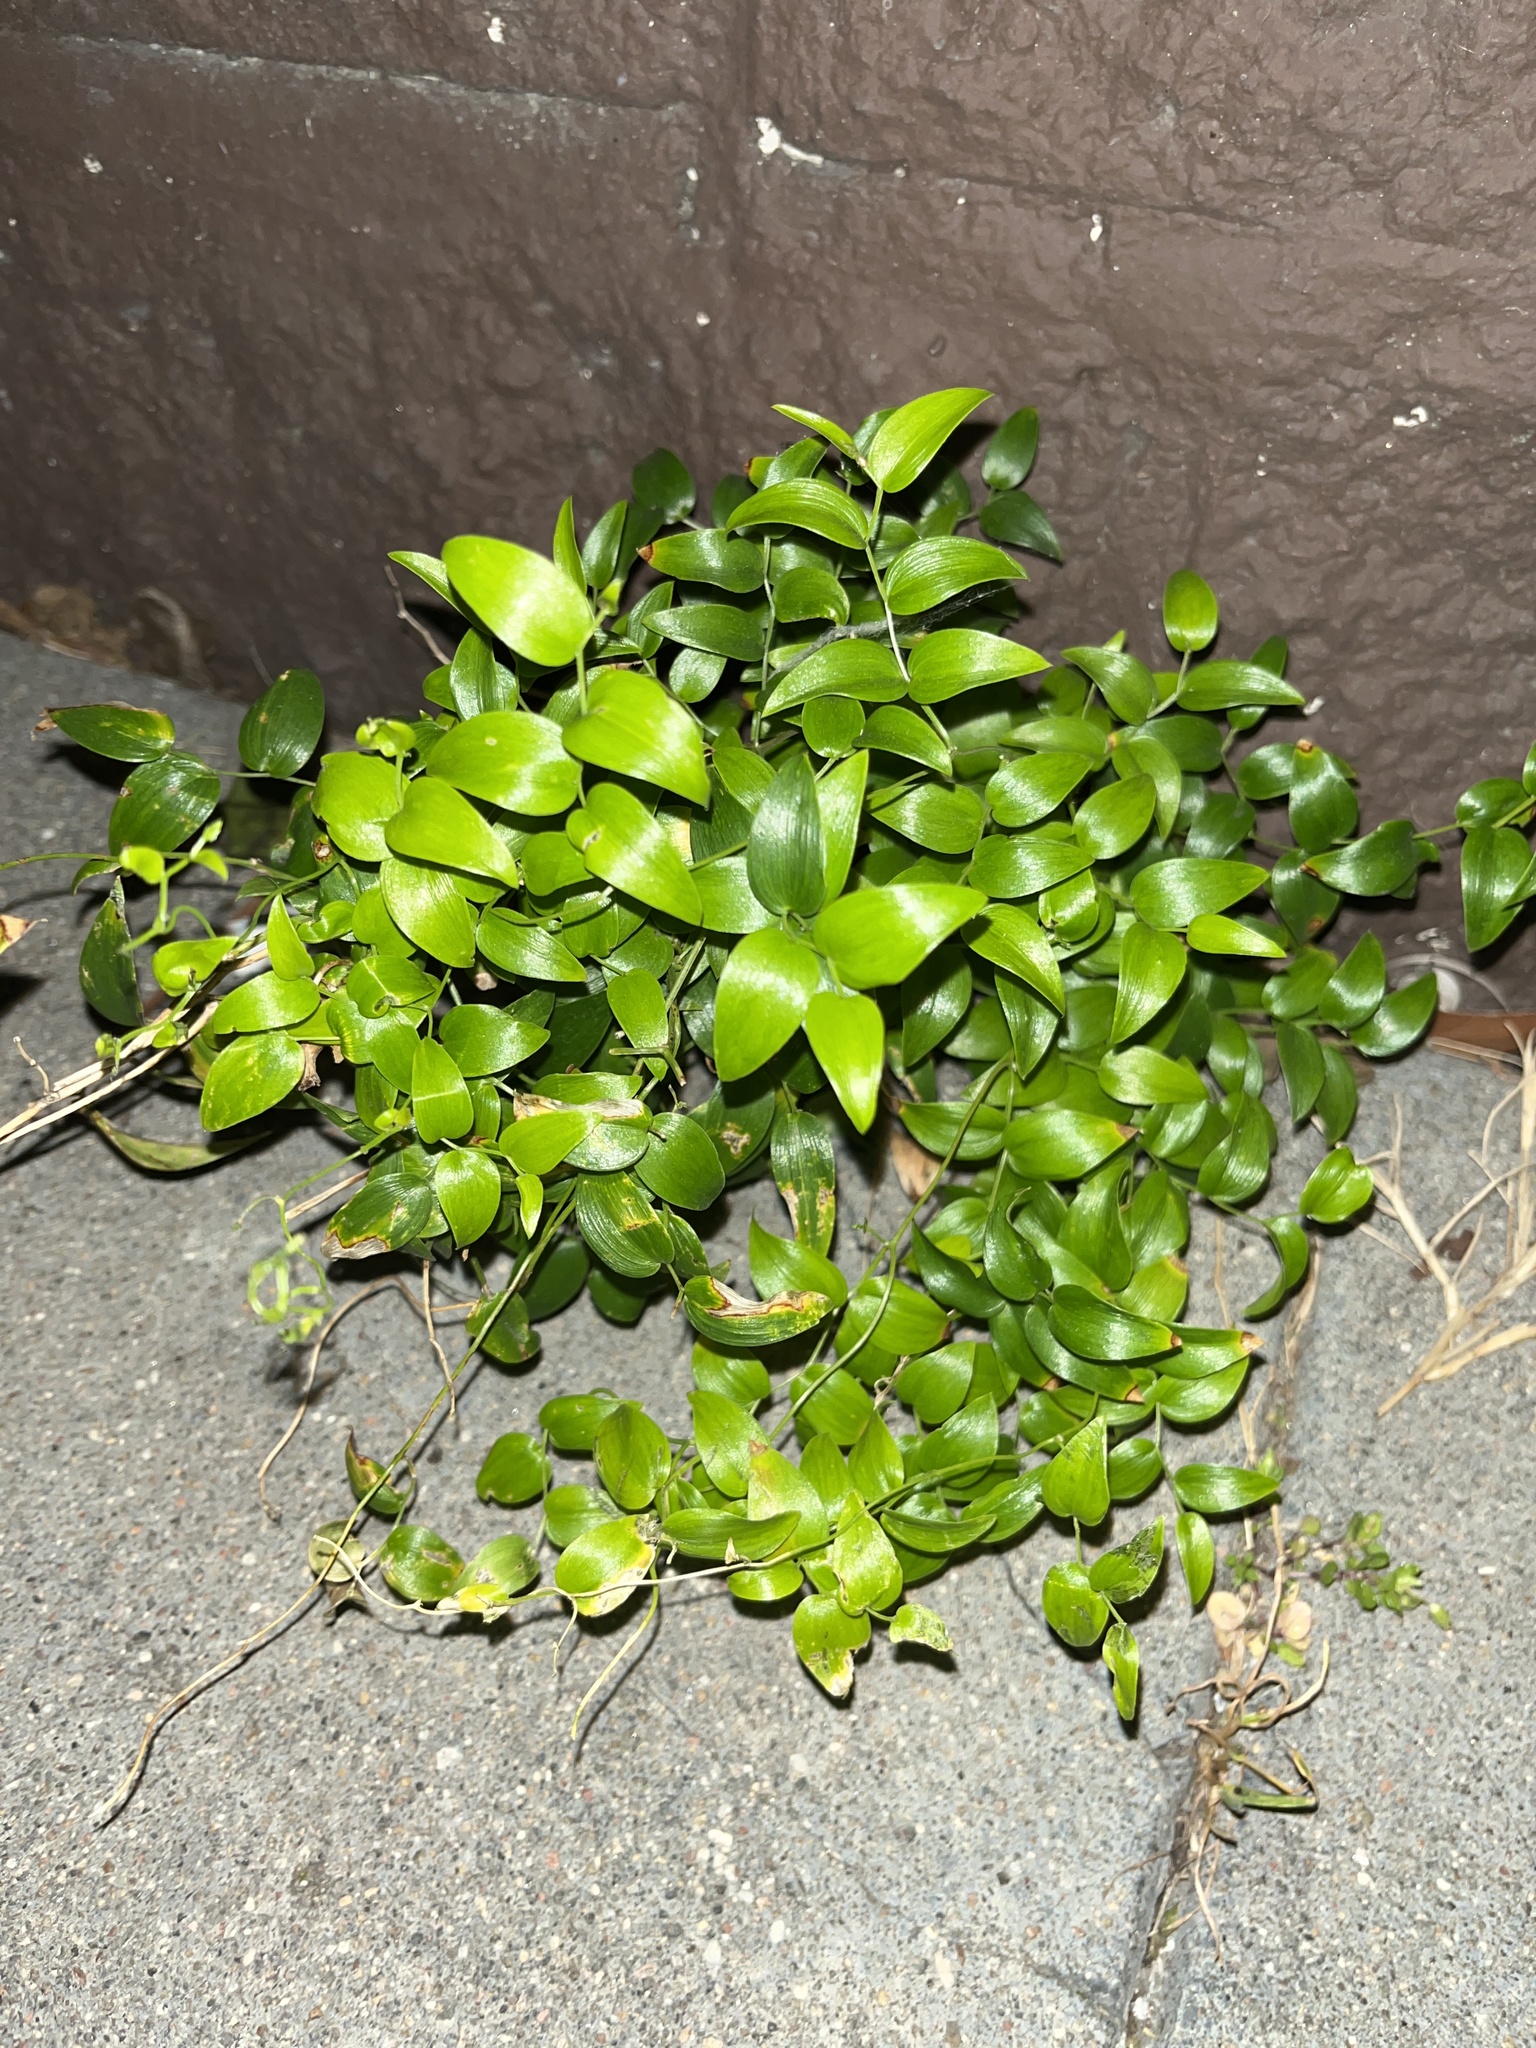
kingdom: Plantae
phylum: Tracheophyta
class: Liliopsida
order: Asparagales
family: Asparagaceae
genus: Asparagus
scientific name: Asparagus asparagoides
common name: African asparagus fern
